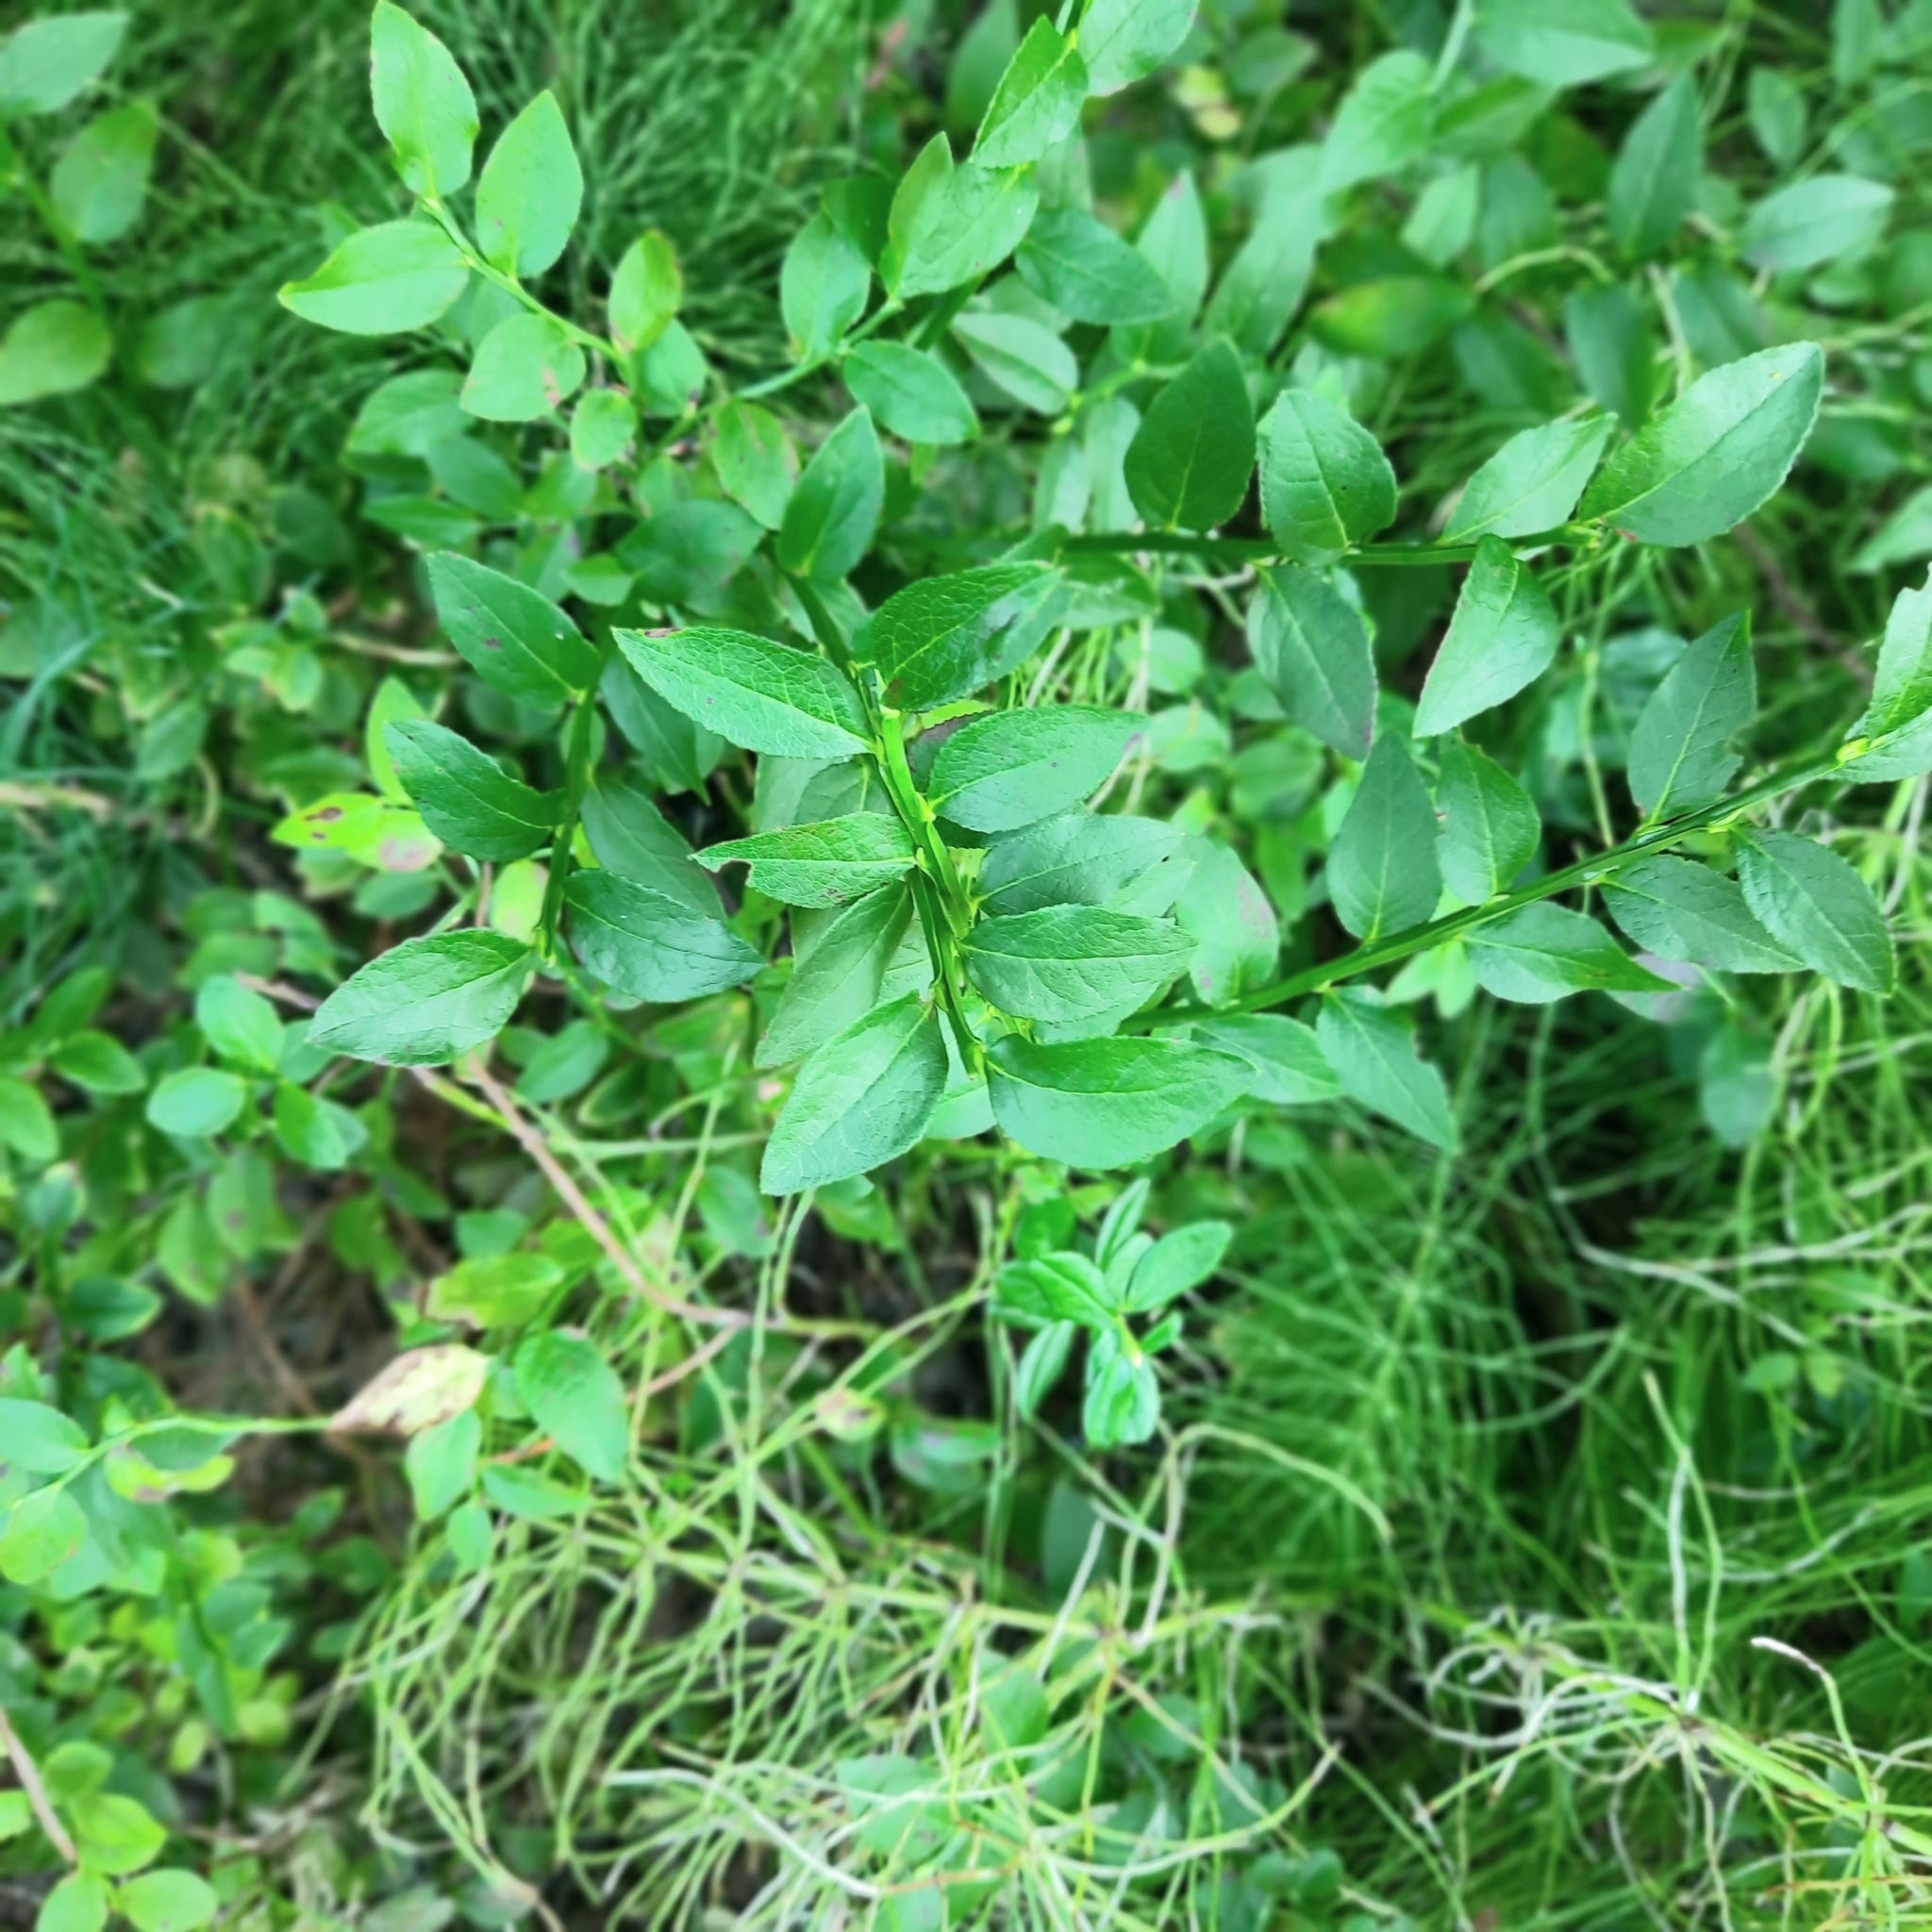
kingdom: Plantae
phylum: Tracheophyta
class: Magnoliopsida
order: Ericales
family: Ericaceae
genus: Vaccinium
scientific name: Vaccinium myrtillus
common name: Bilberry
